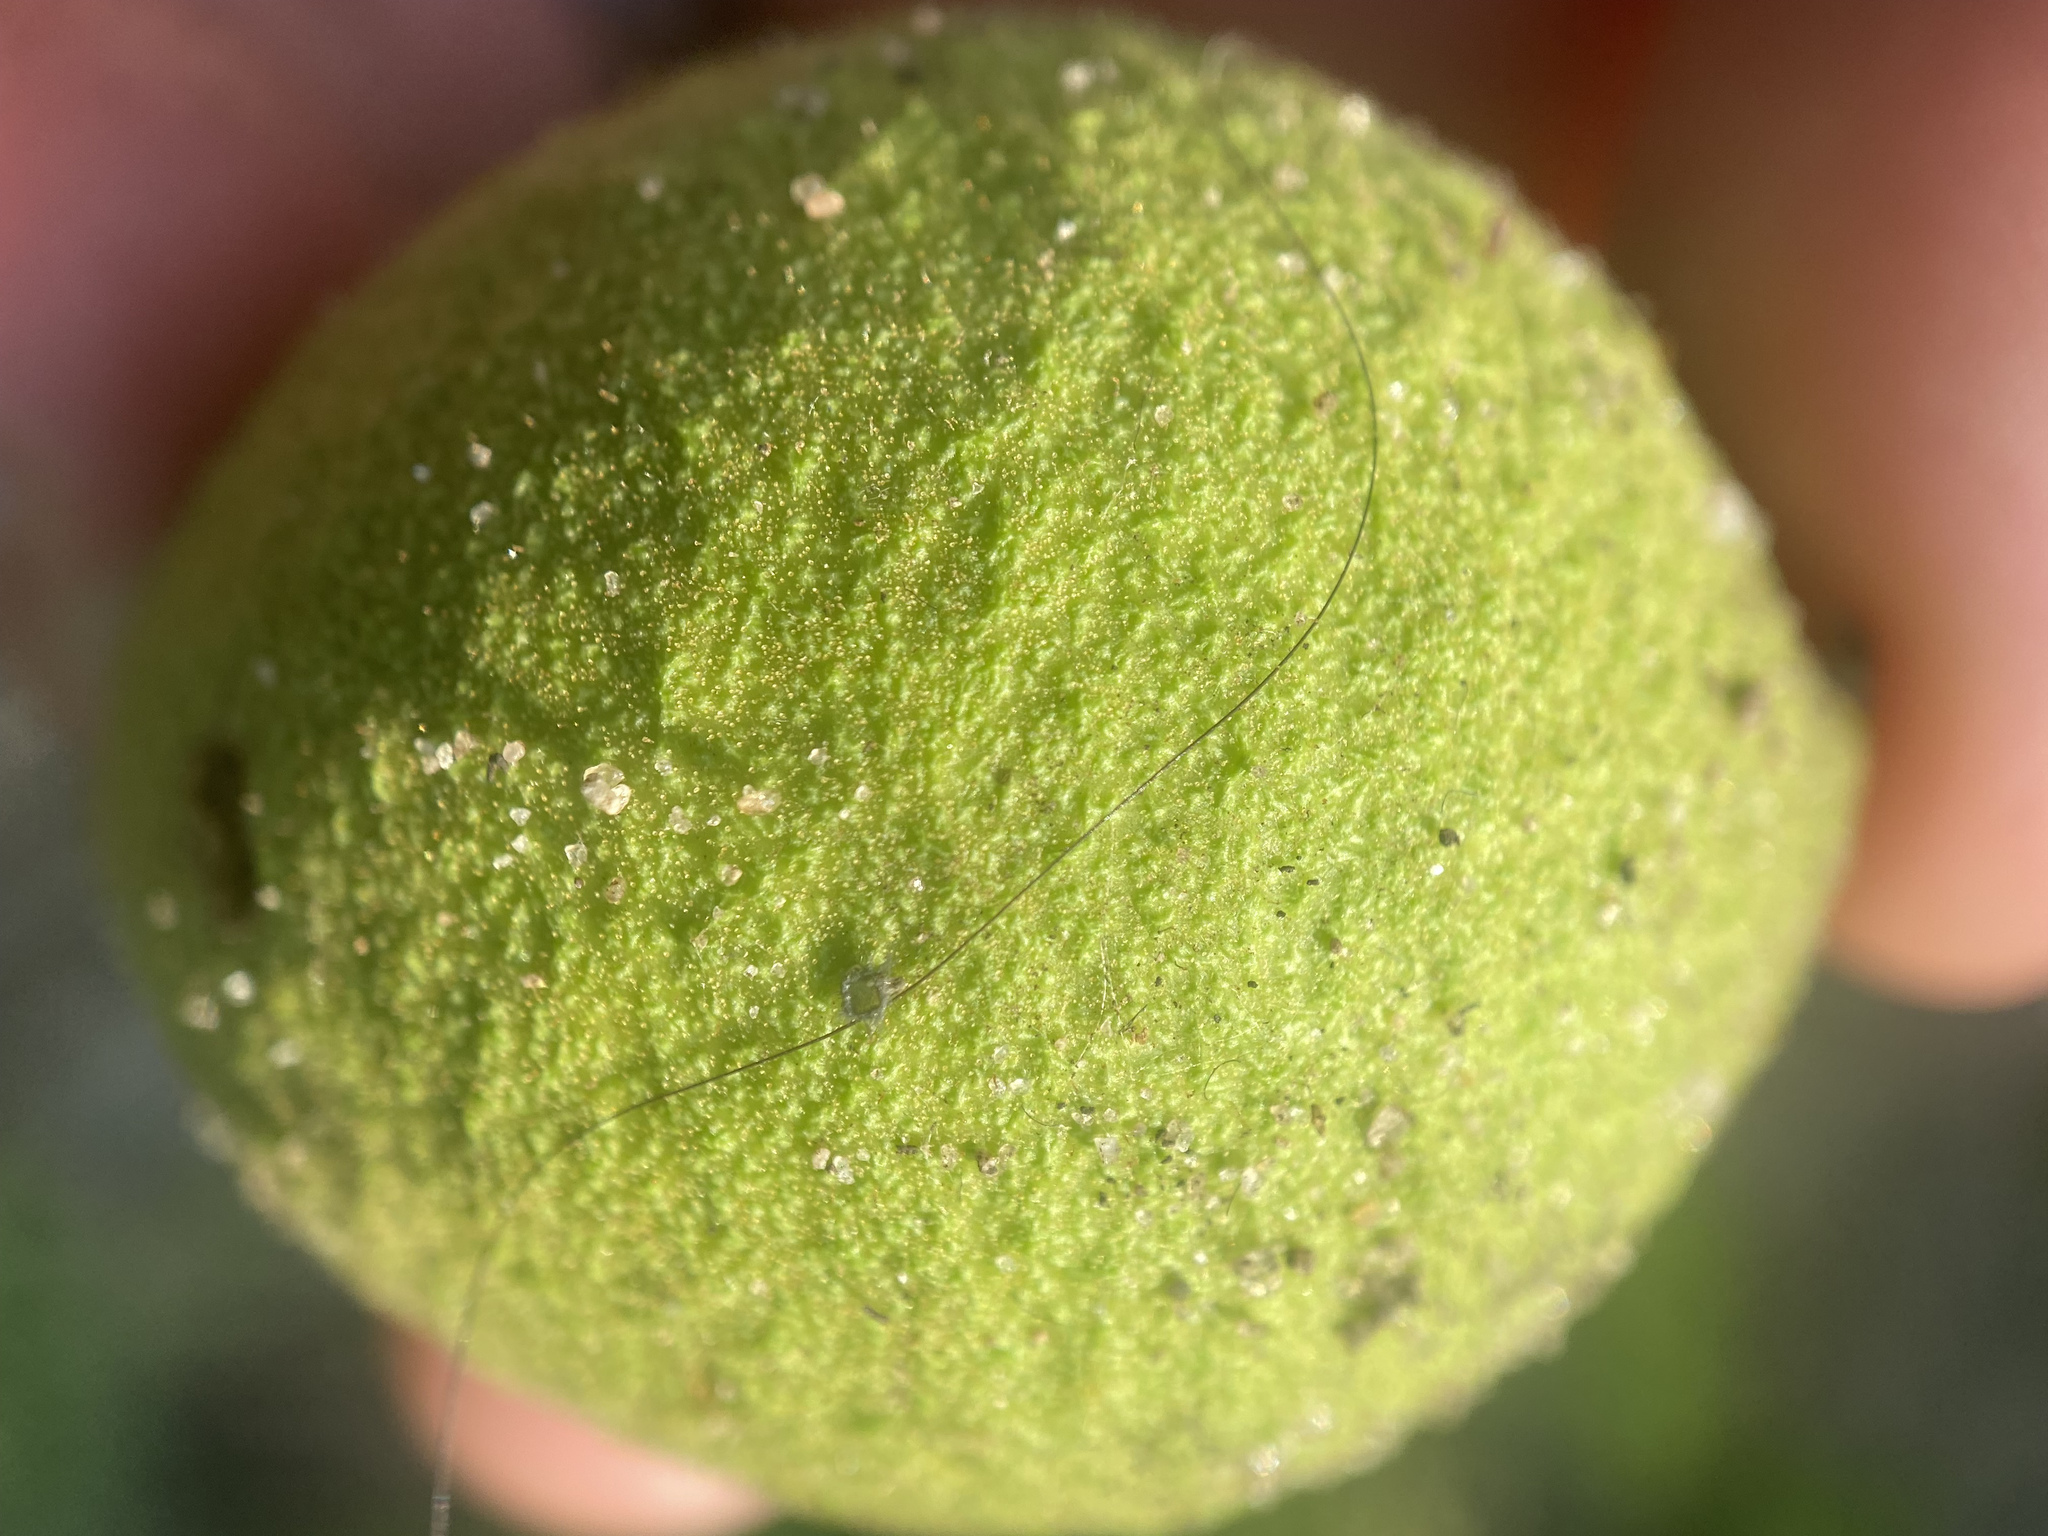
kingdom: Plantae
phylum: Tracheophyta
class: Magnoliopsida
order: Fagales
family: Juglandaceae
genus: Juglans
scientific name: Juglans nigra
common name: Black walnut
